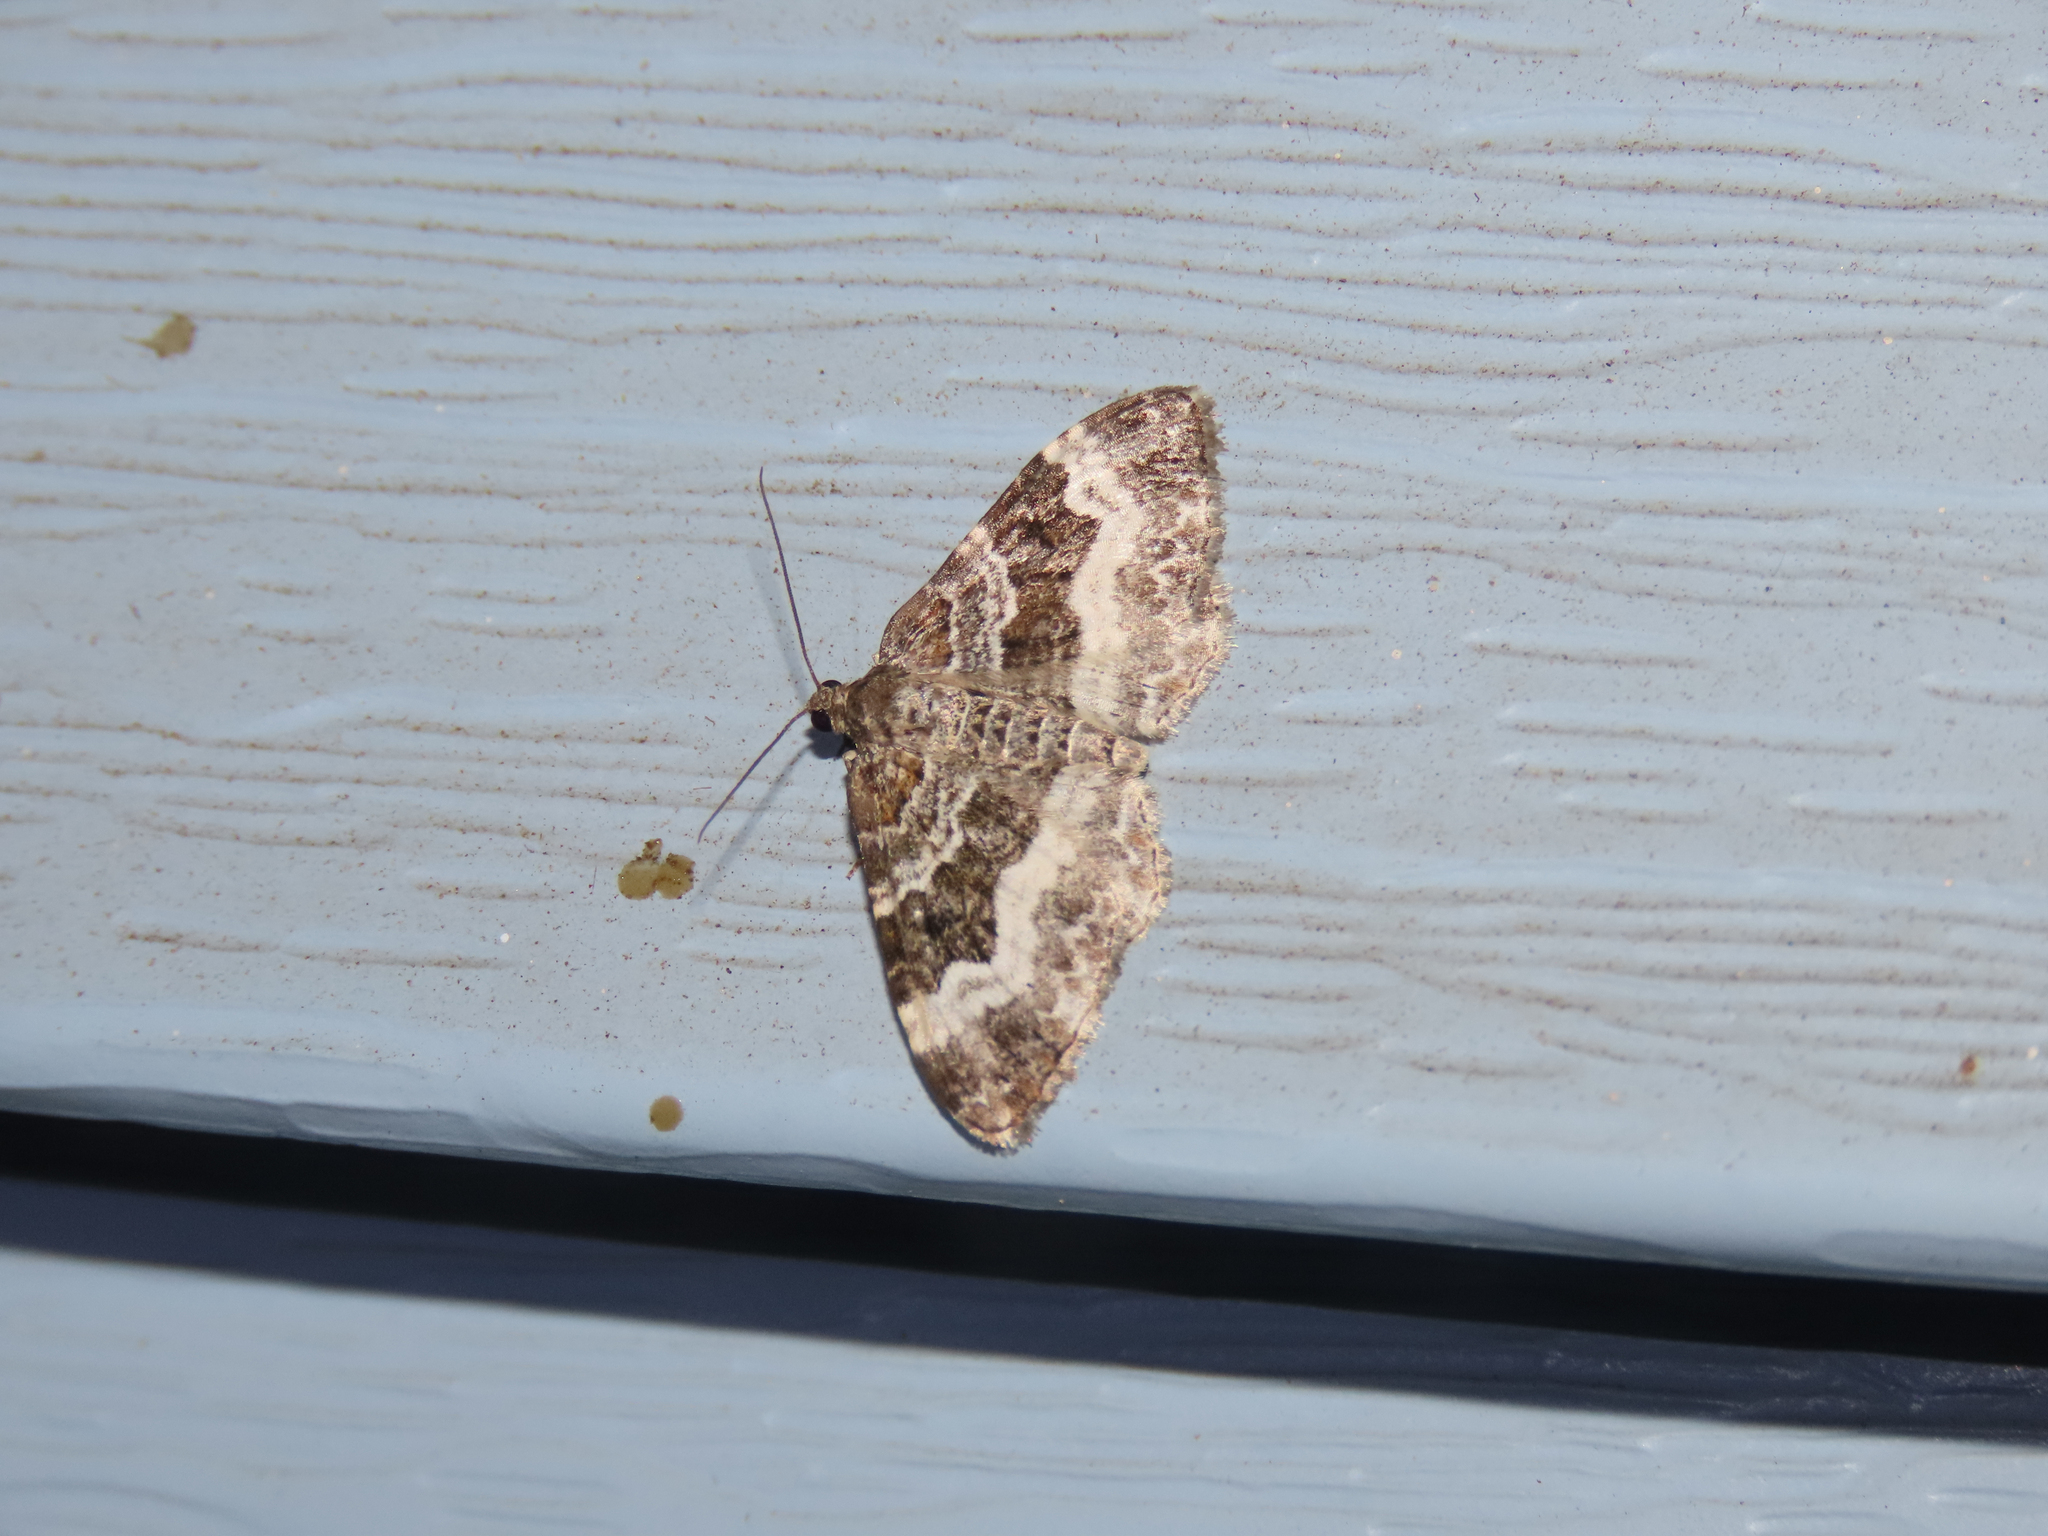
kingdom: Animalia
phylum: Arthropoda
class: Insecta
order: Lepidoptera
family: Geometridae
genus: Epirrhoe
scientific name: Epirrhoe alternata
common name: Common carpet
